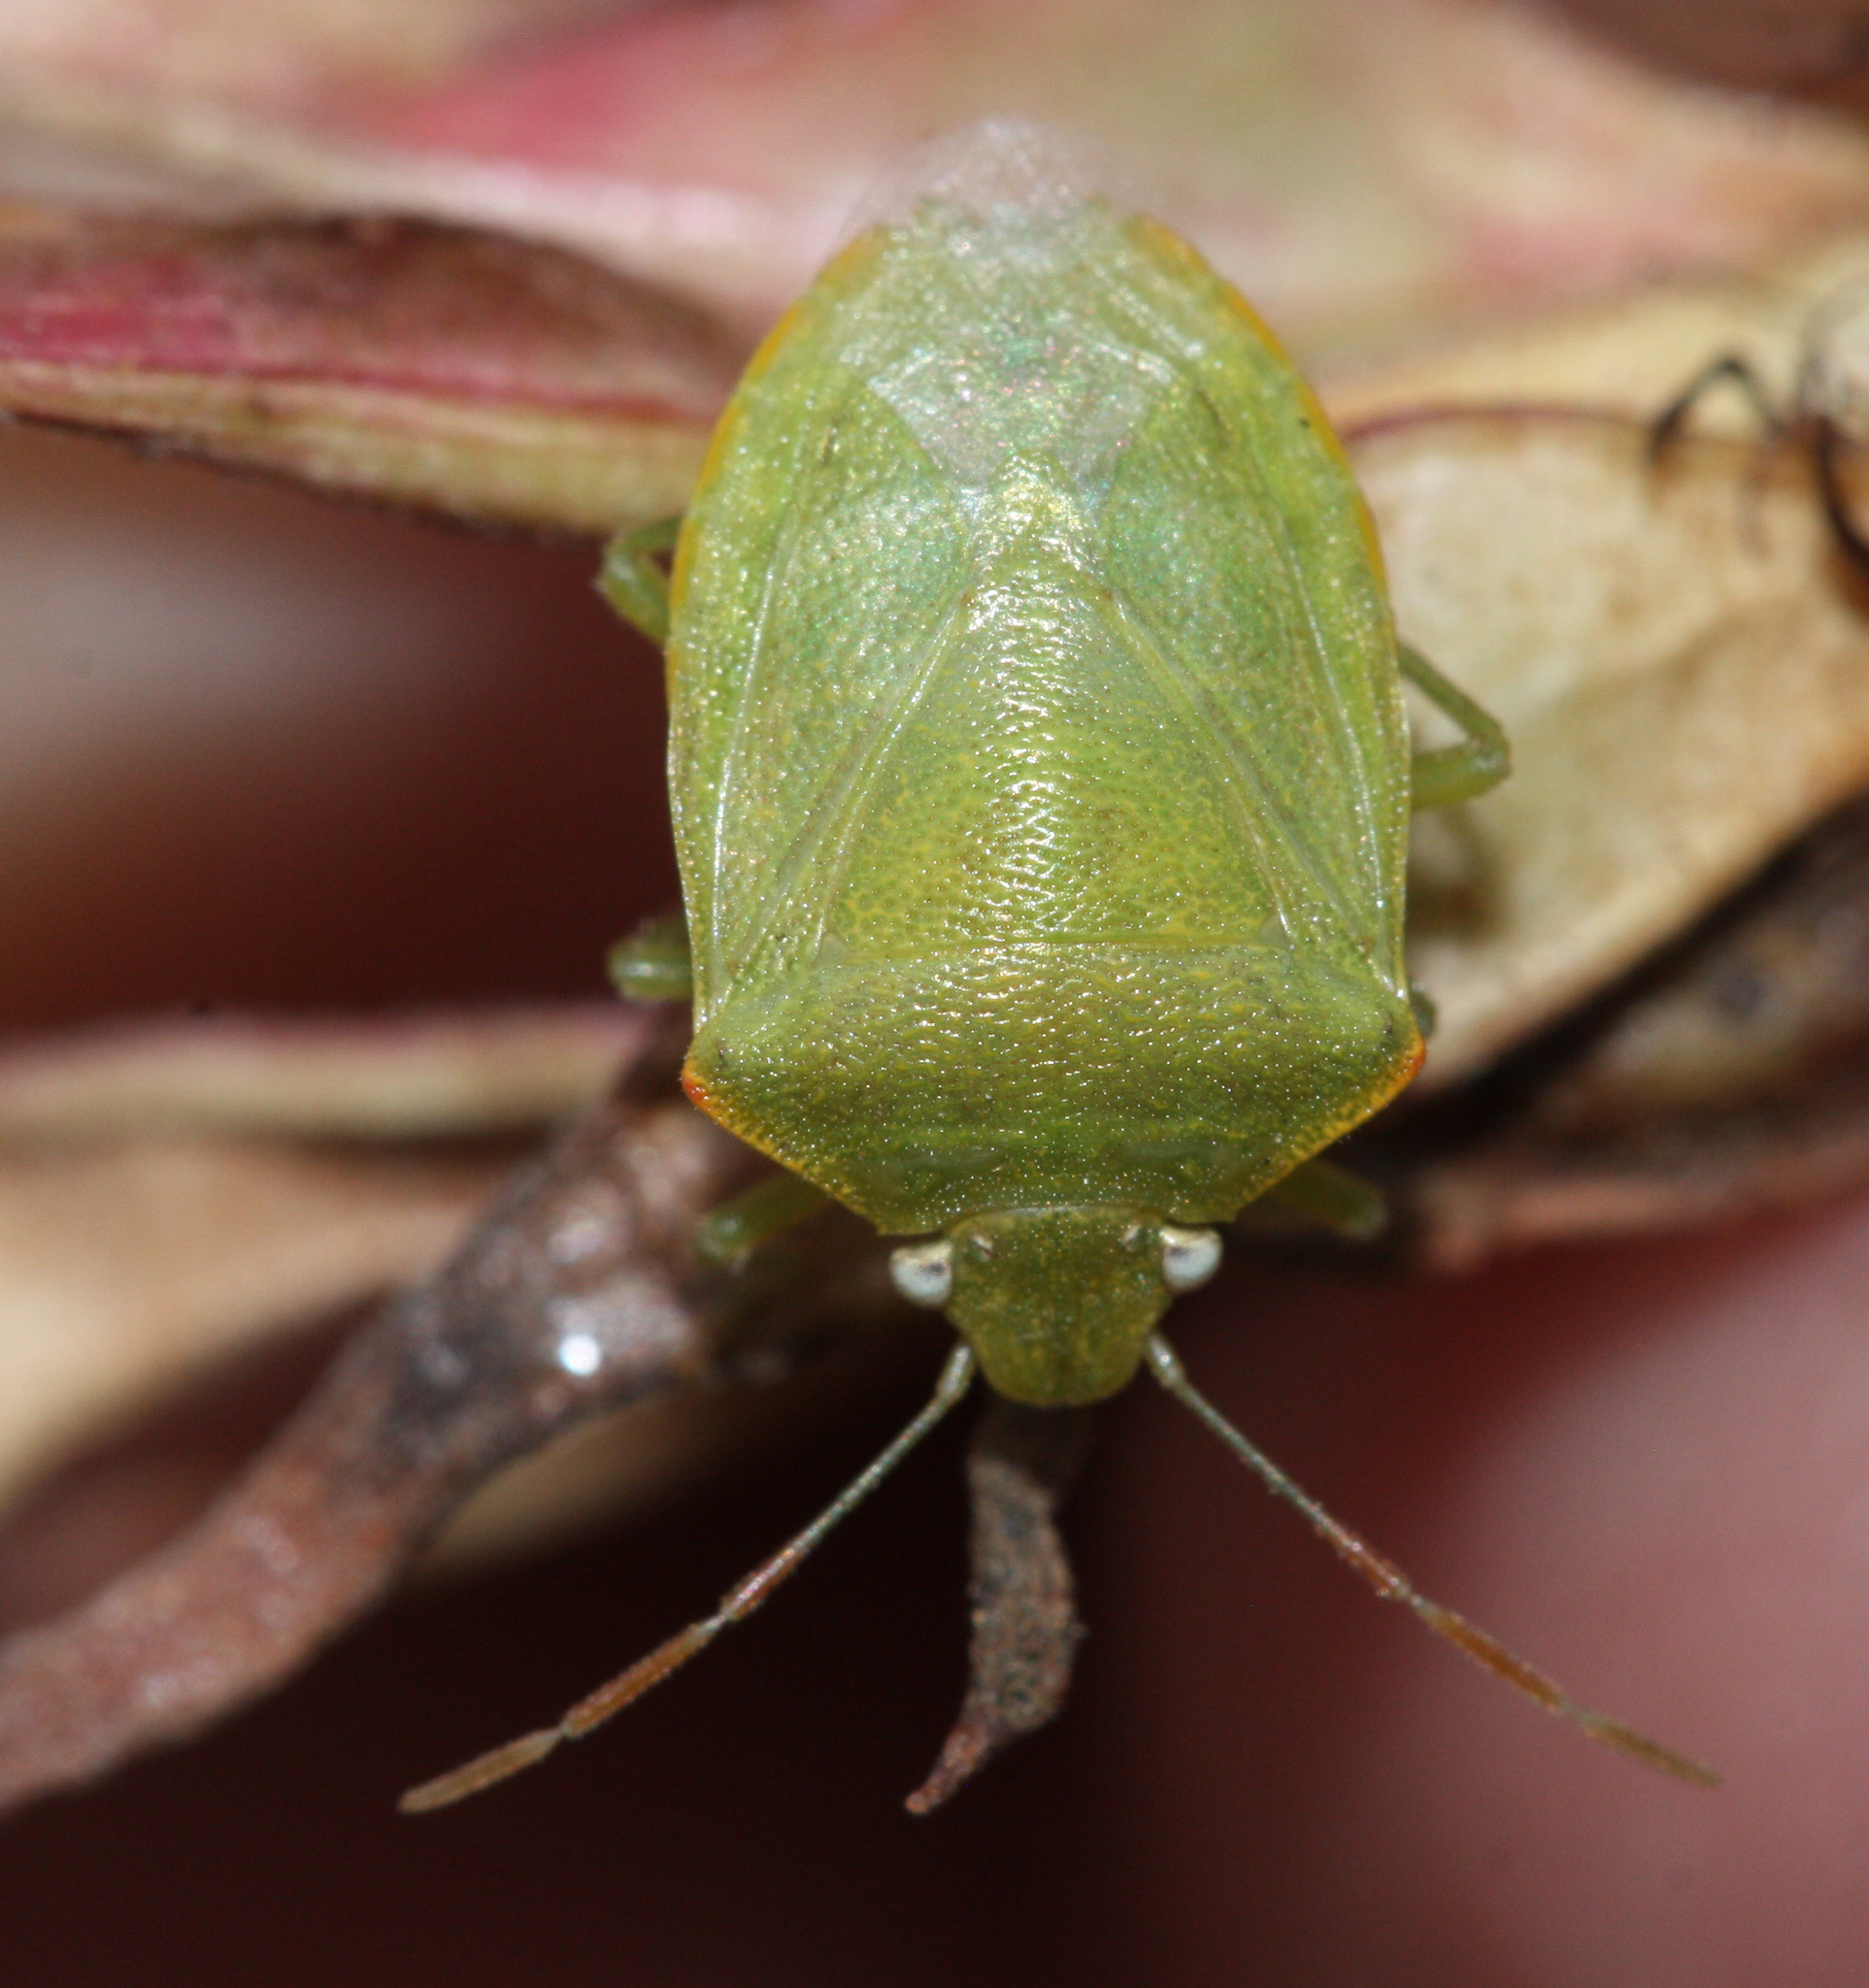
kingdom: Animalia
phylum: Arthropoda
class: Insecta
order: Hemiptera
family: Pentatomidae
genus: Thyanta
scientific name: Thyanta accerra
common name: Stink bug
